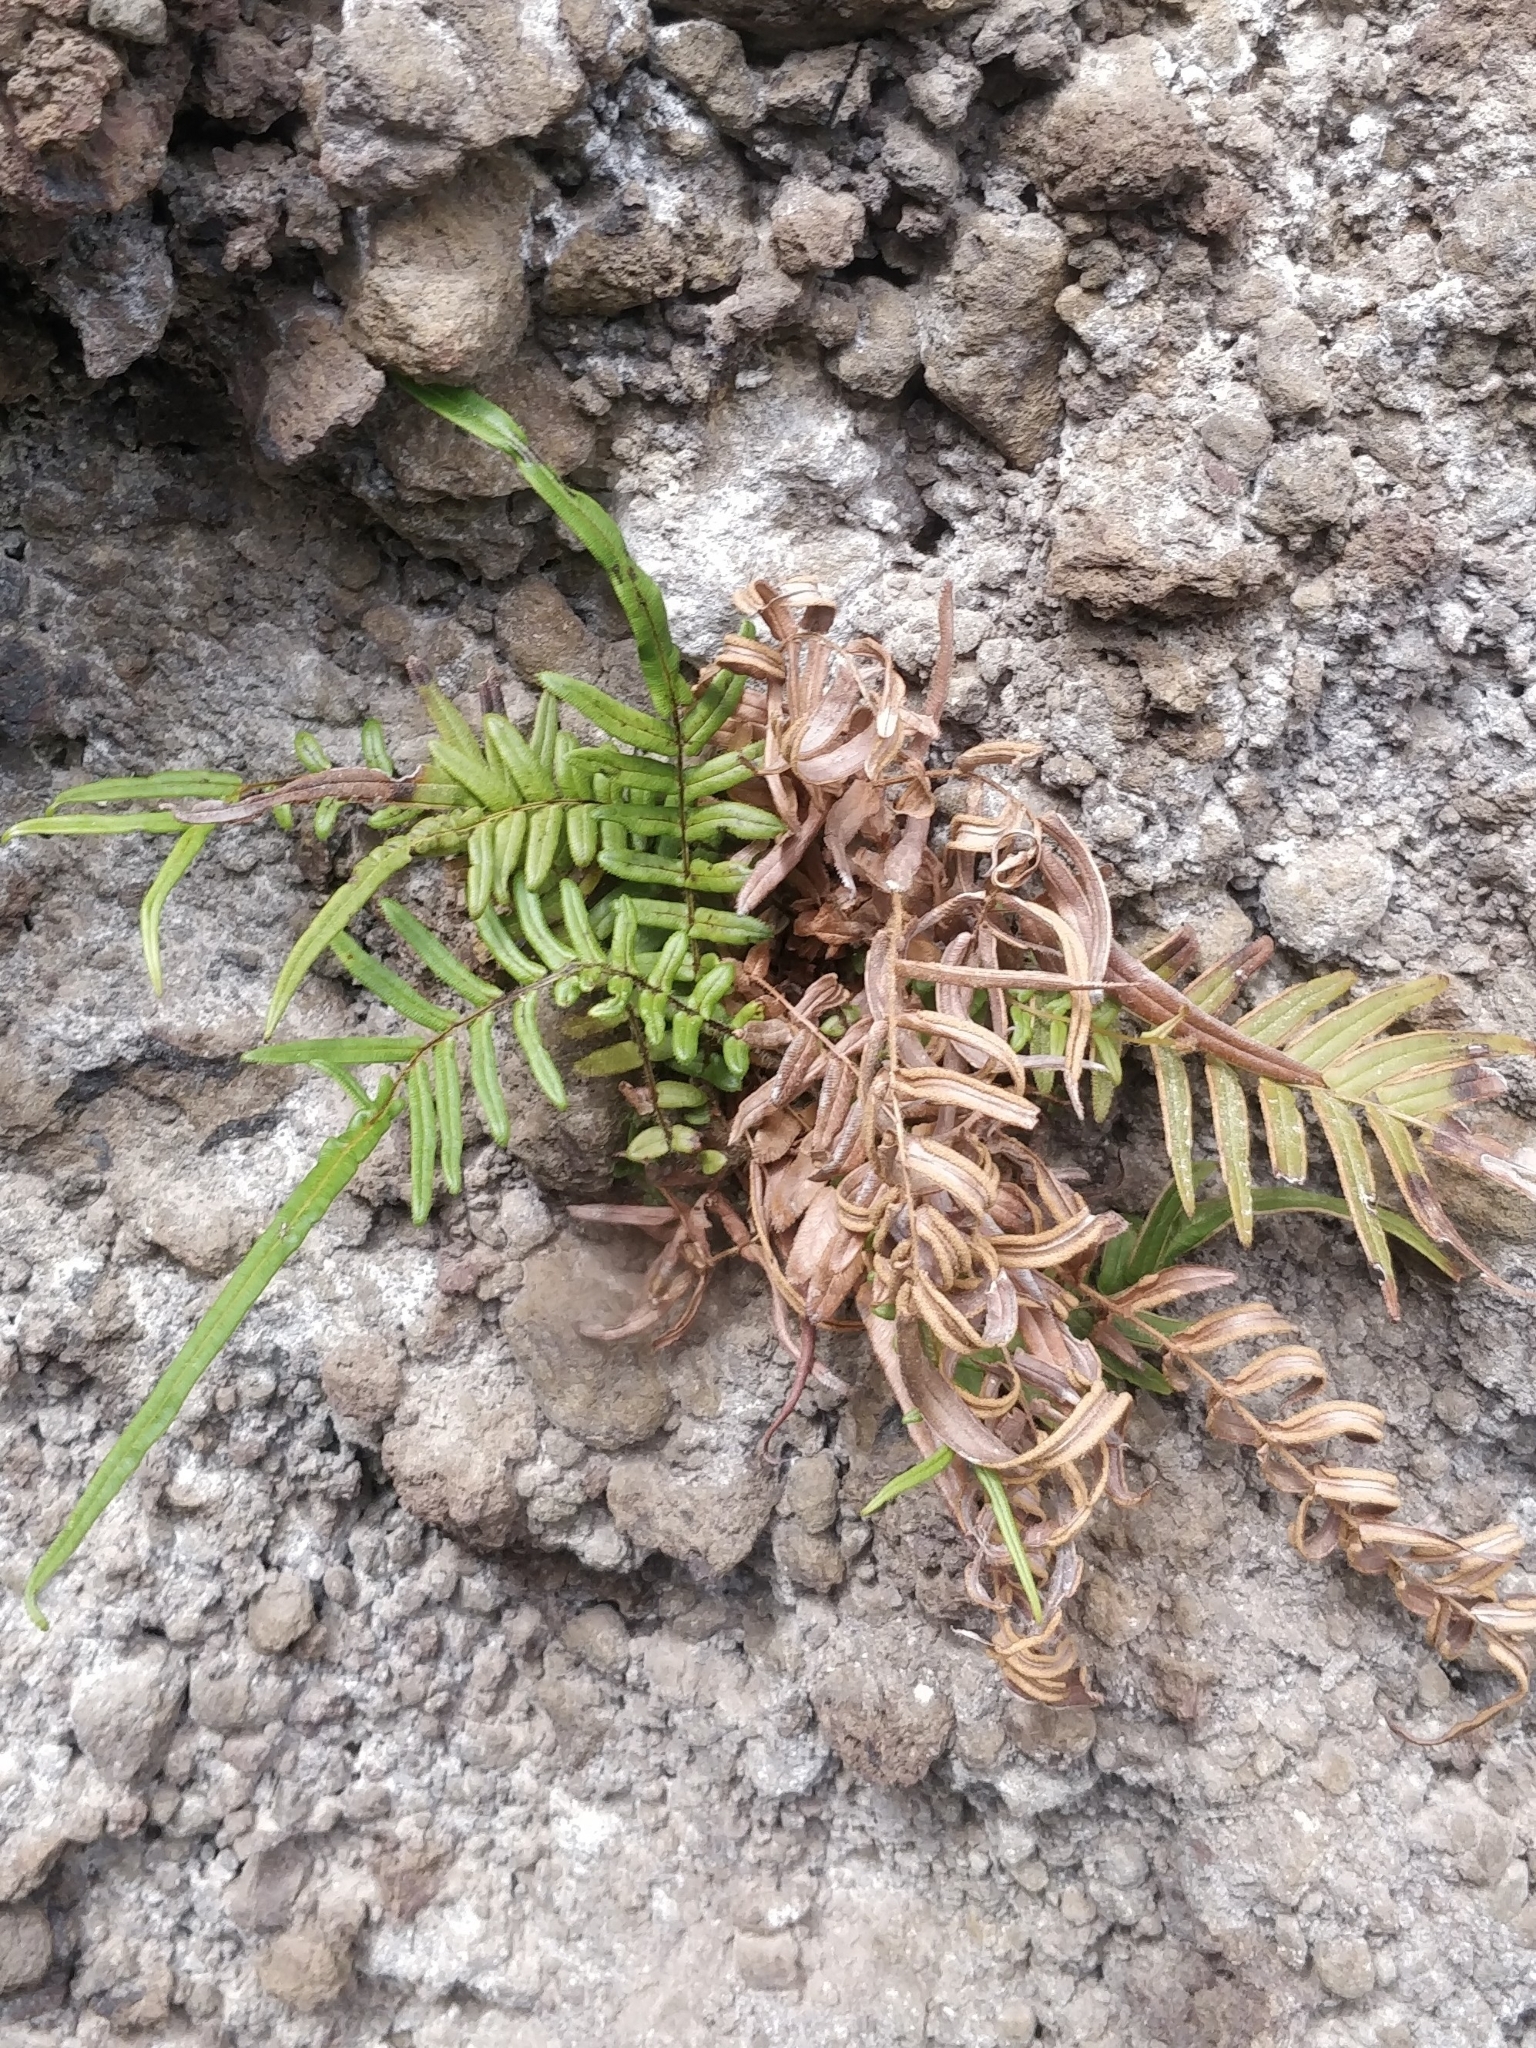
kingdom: Plantae
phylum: Tracheophyta
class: Polypodiopsida
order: Polypodiales
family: Pteridaceae
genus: Pteris
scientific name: Pteris vittata
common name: Ladder brake
